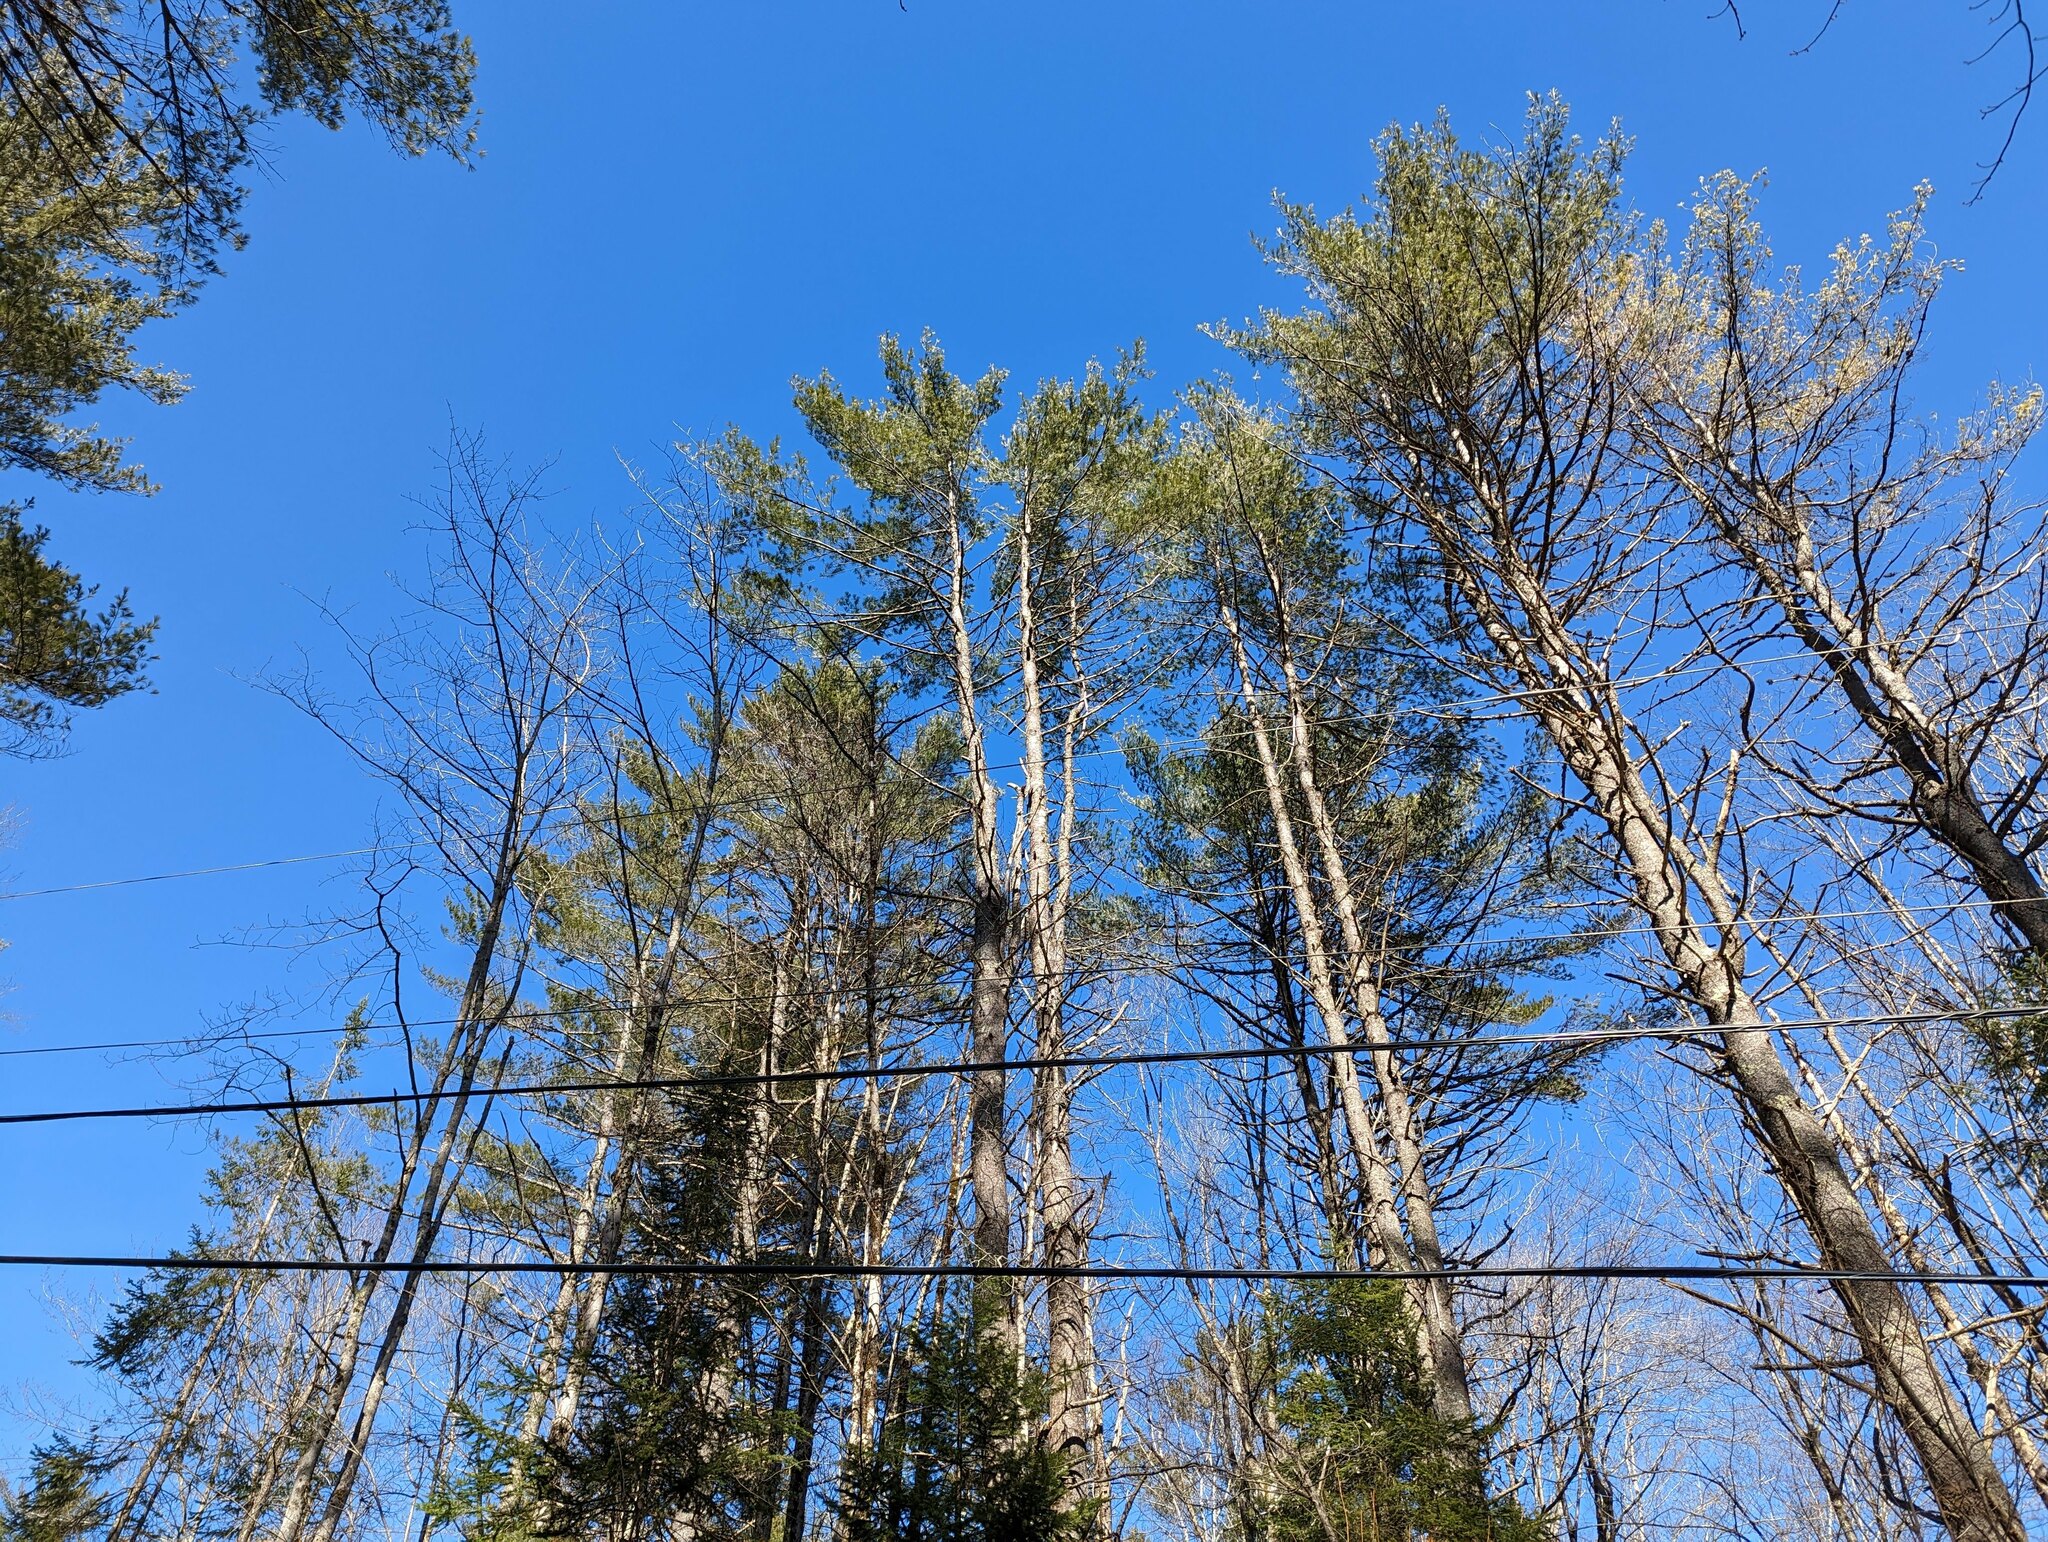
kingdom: Plantae
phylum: Tracheophyta
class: Pinopsida
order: Pinales
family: Pinaceae
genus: Pinus
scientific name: Pinus strobus
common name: Weymouth pine
